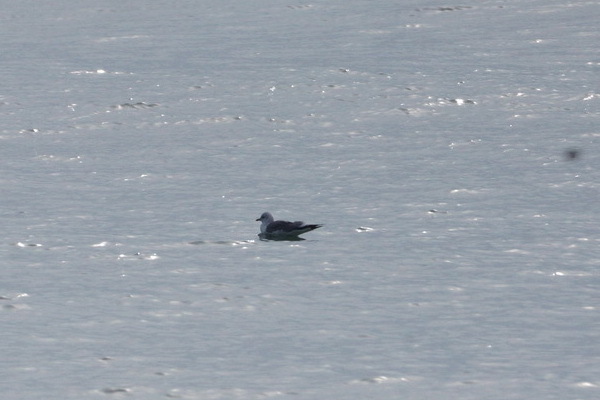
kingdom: Animalia
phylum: Chordata
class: Aves
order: Charadriiformes
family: Laridae
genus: Larus
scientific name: Larus canus
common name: Mew gull
